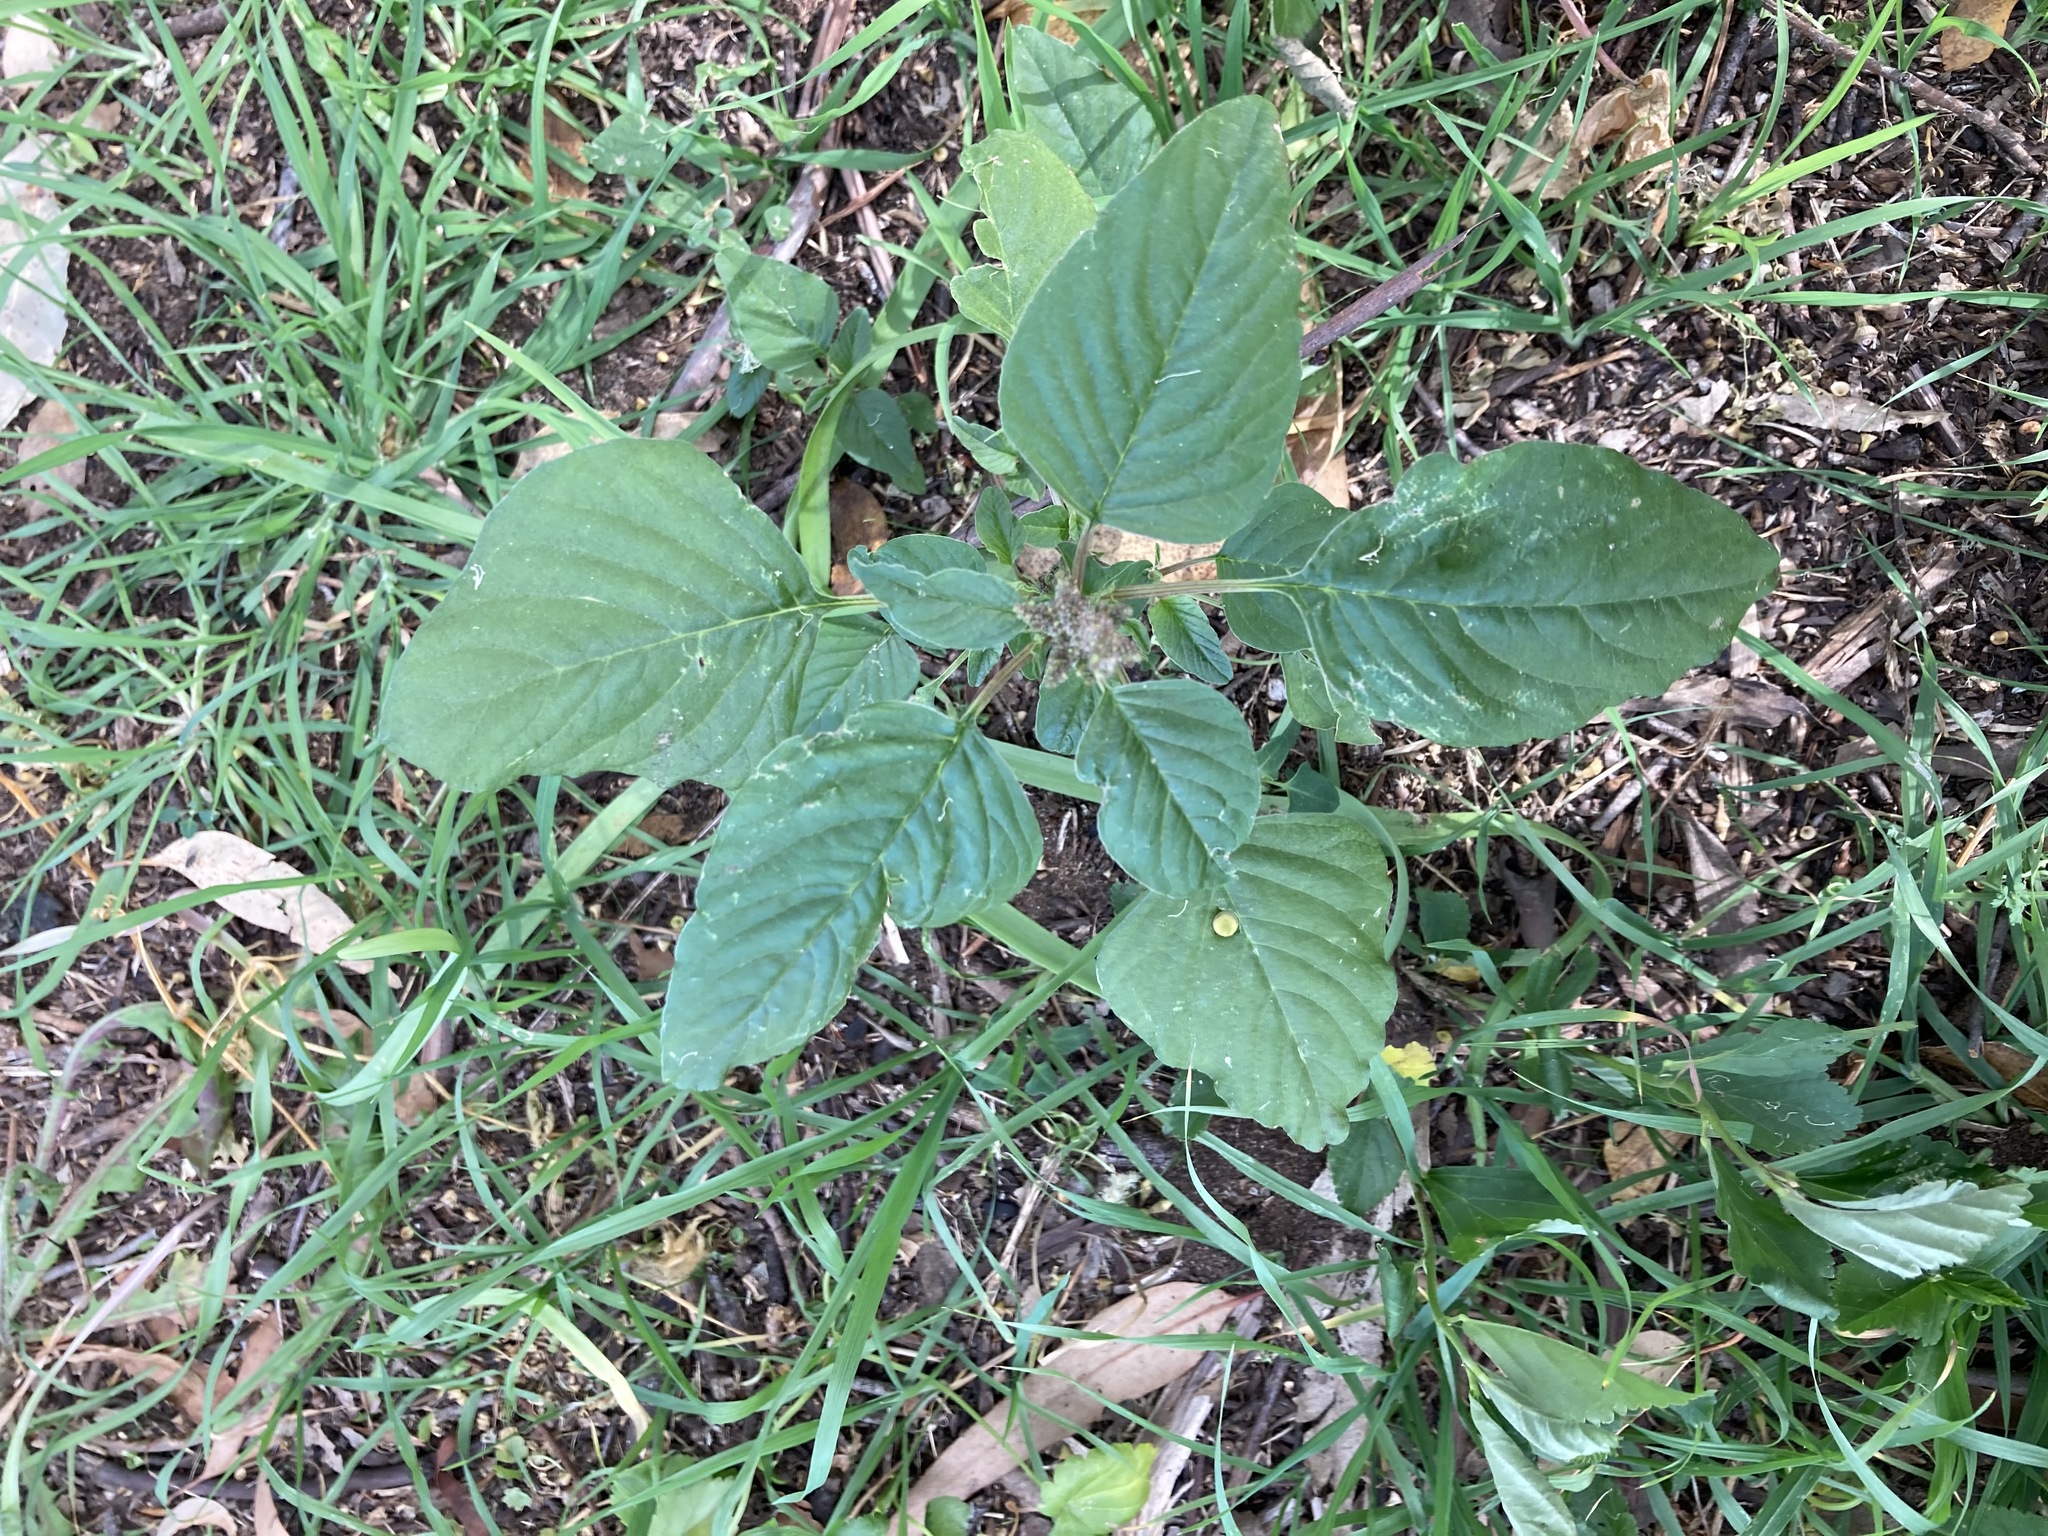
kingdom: Plantae
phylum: Tracheophyta
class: Magnoliopsida
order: Caryophyllales
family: Amaranthaceae
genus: Amaranthus
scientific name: Amaranthus viridis
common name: Slender amaranth
